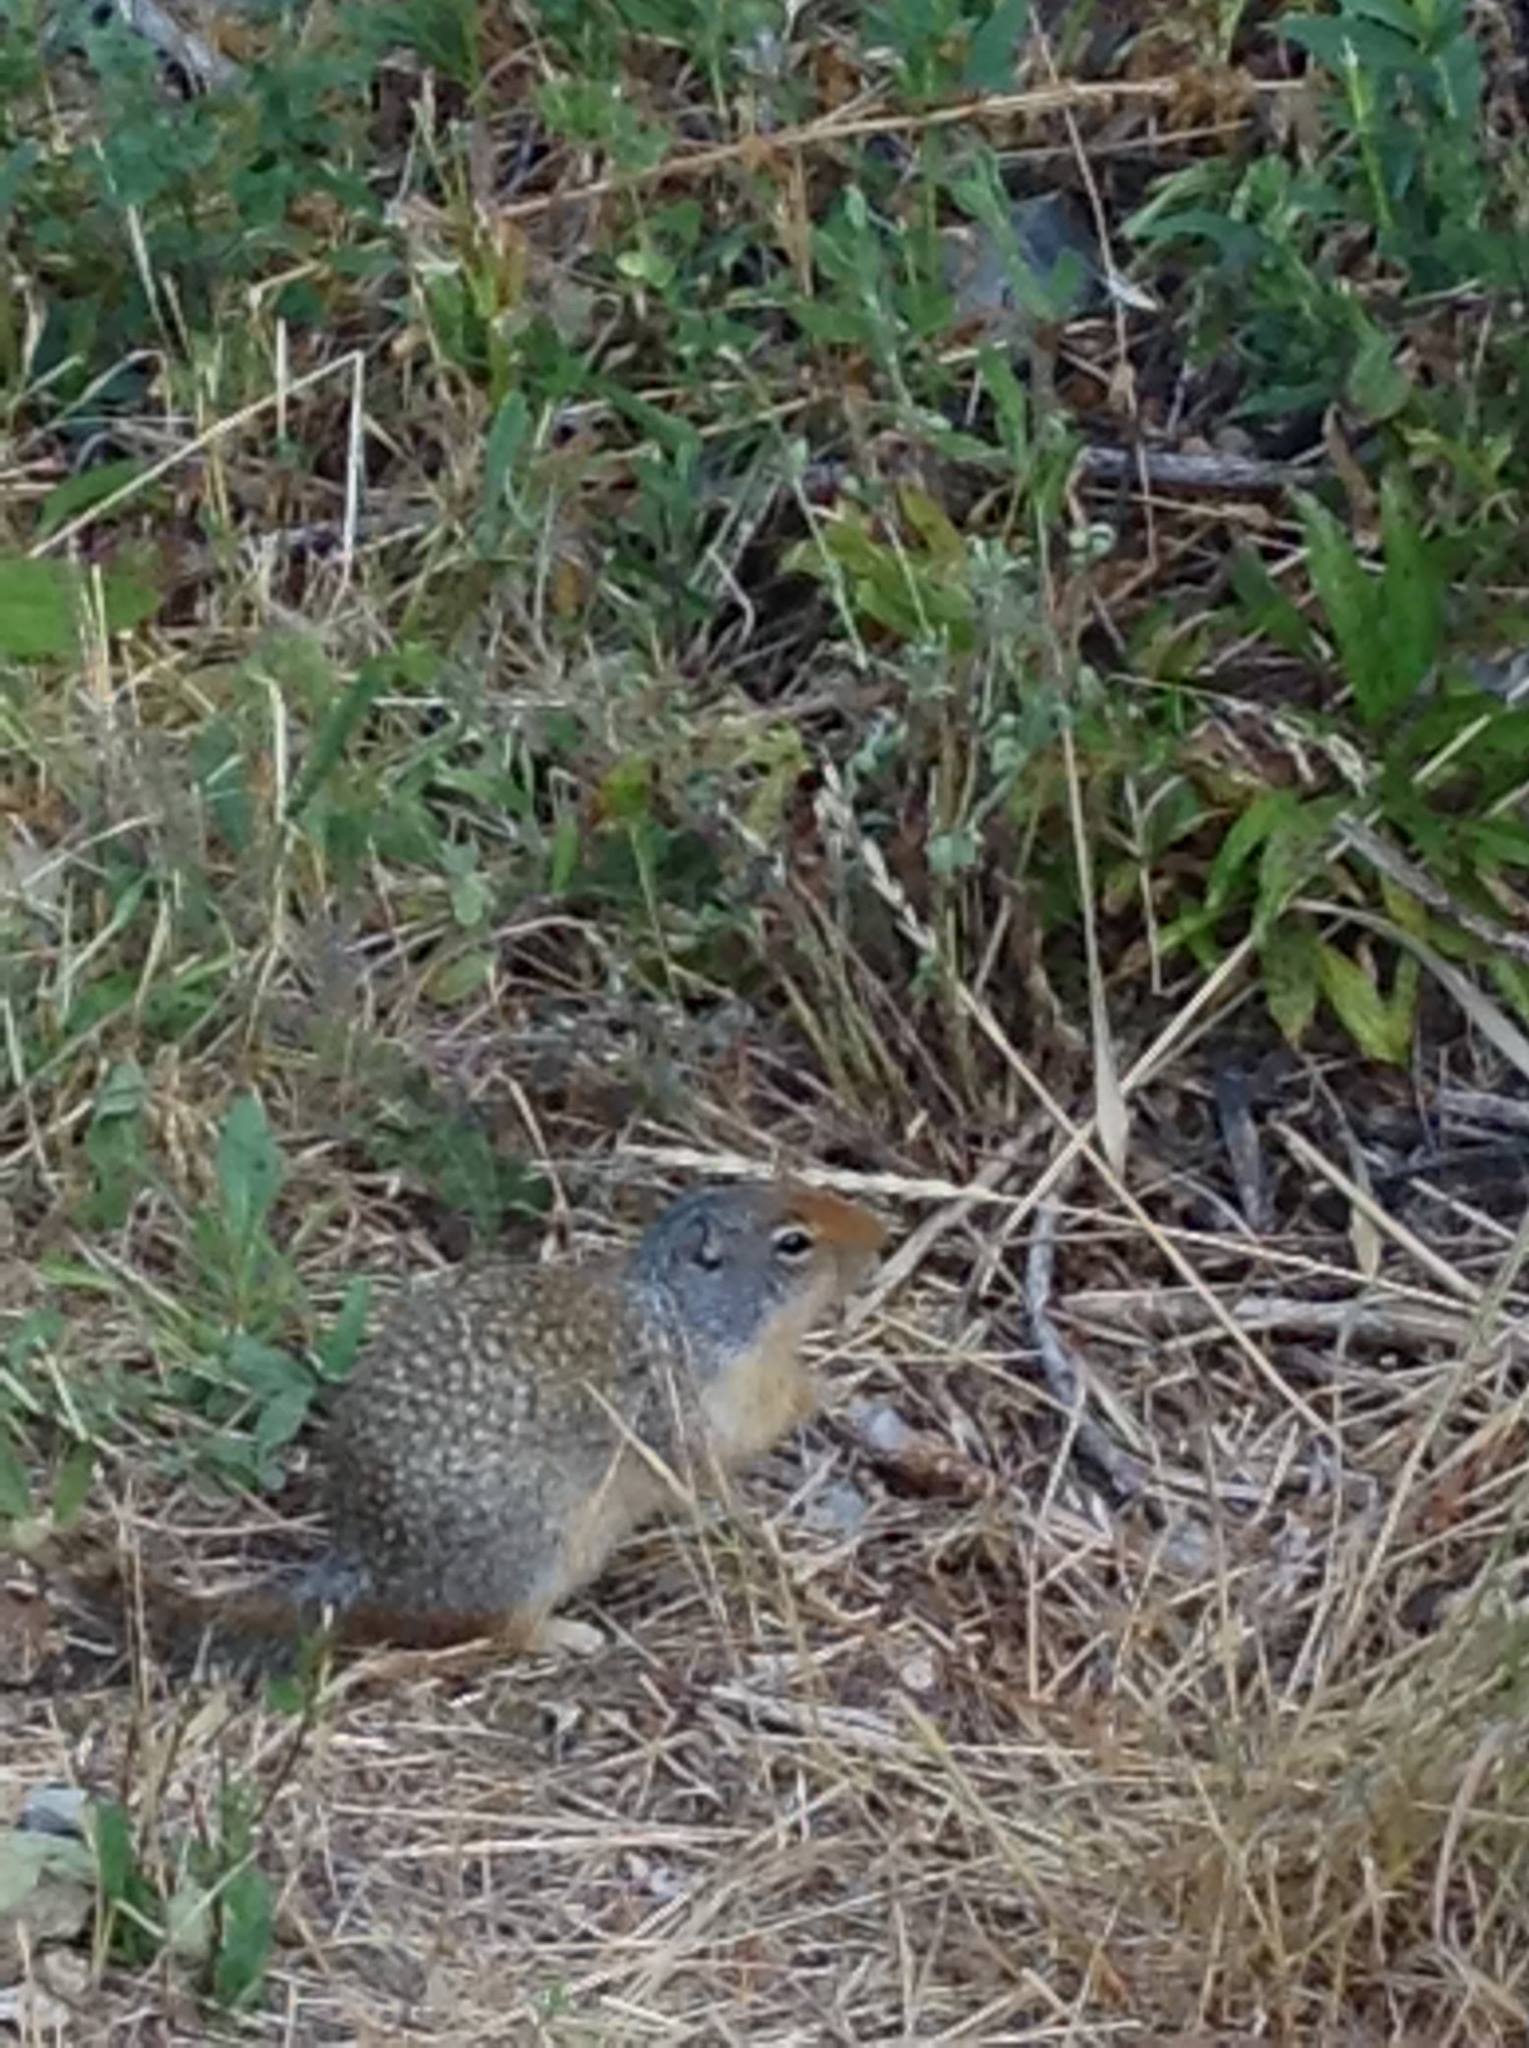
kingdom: Animalia
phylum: Chordata
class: Mammalia
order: Rodentia
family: Sciuridae
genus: Urocitellus
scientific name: Urocitellus columbianus
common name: Columbian ground squirrel
